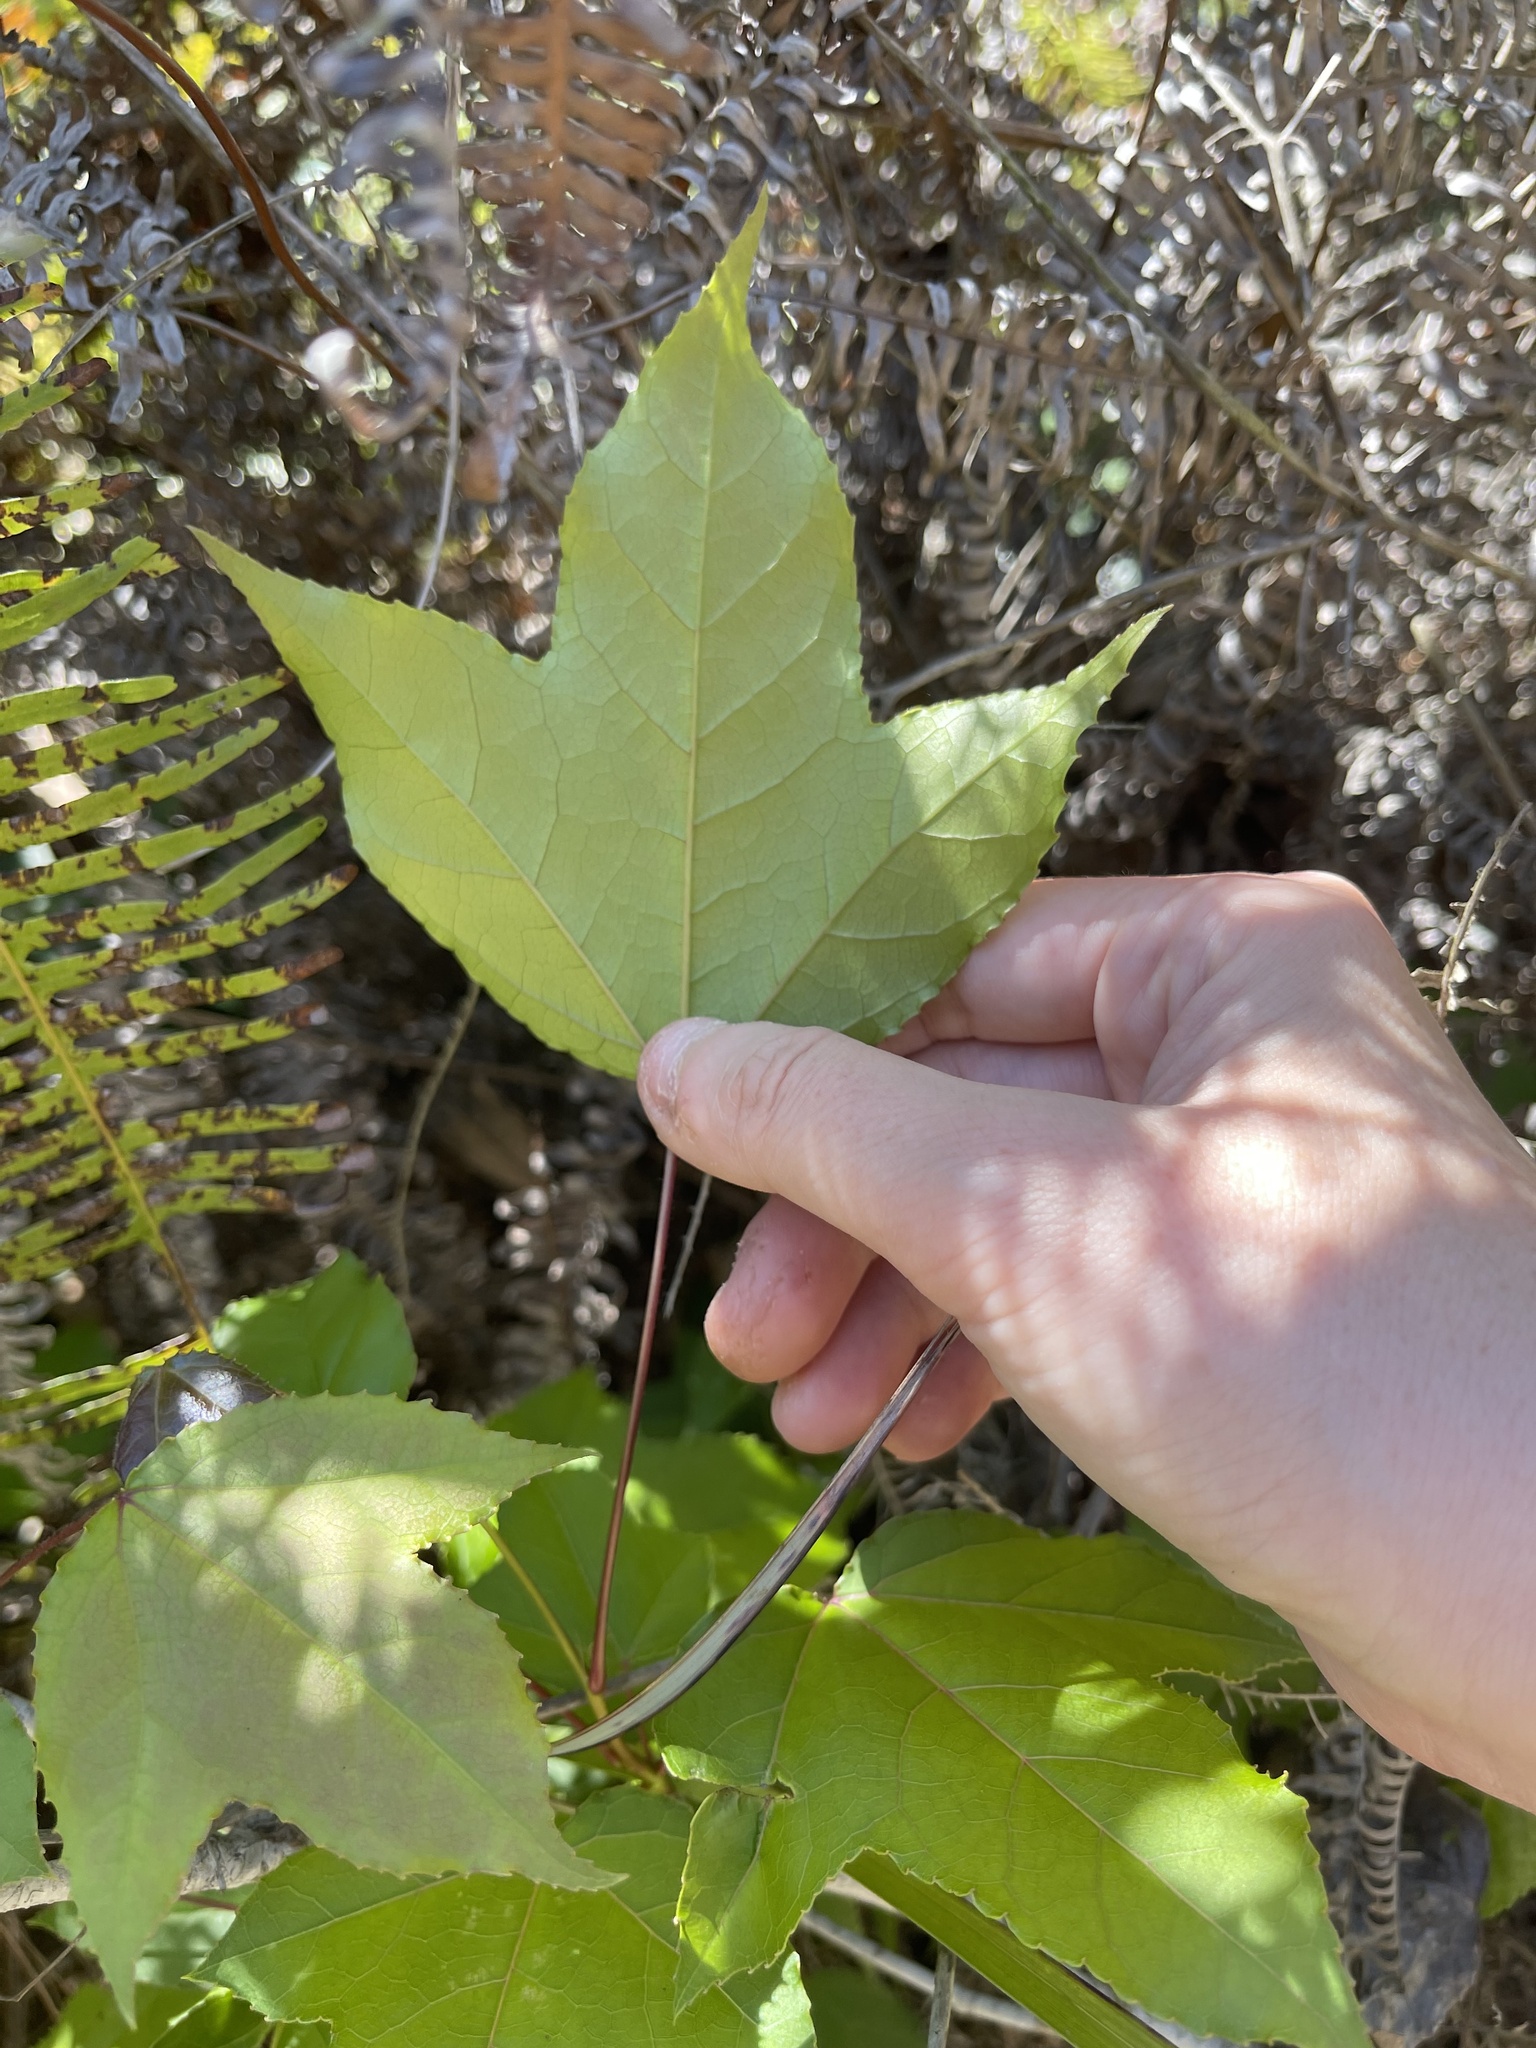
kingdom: Plantae
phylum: Tracheophyta
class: Magnoliopsida
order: Saxifragales
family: Altingiaceae
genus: Liquidambar
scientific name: Liquidambar formosana
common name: Chinese sweet gum
